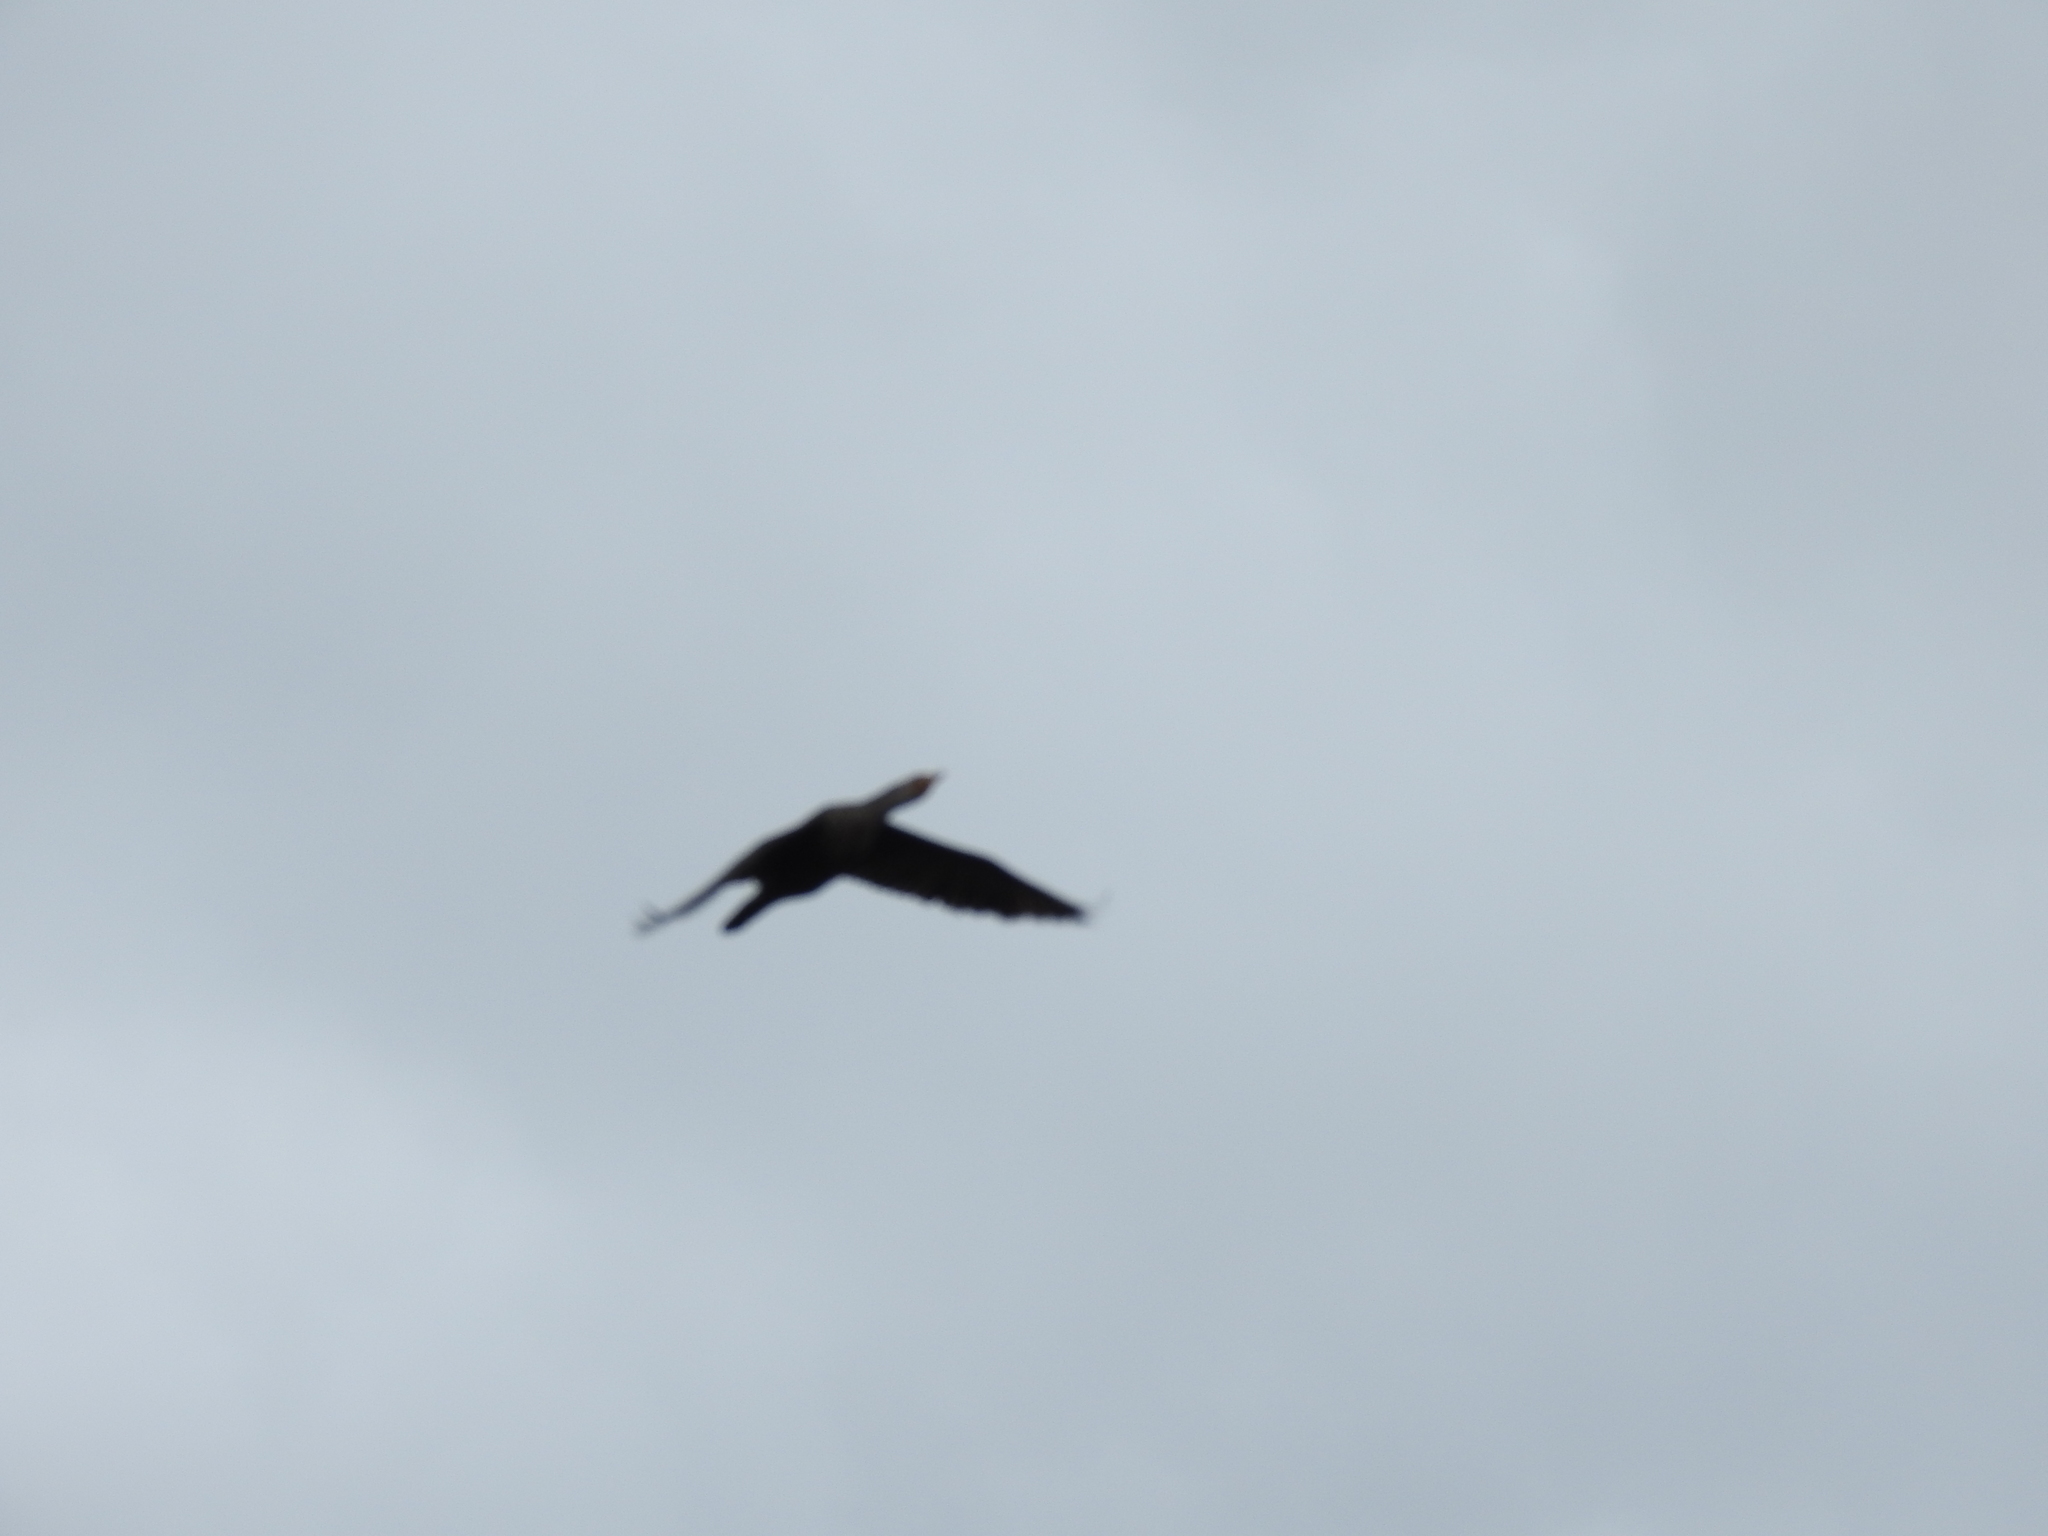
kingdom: Animalia
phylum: Chordata
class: Aves
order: Suliformes
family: Phalacrocoracidae
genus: Phalacrocorax
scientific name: Phalacrocorax auritus
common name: Double-crested cormorant
